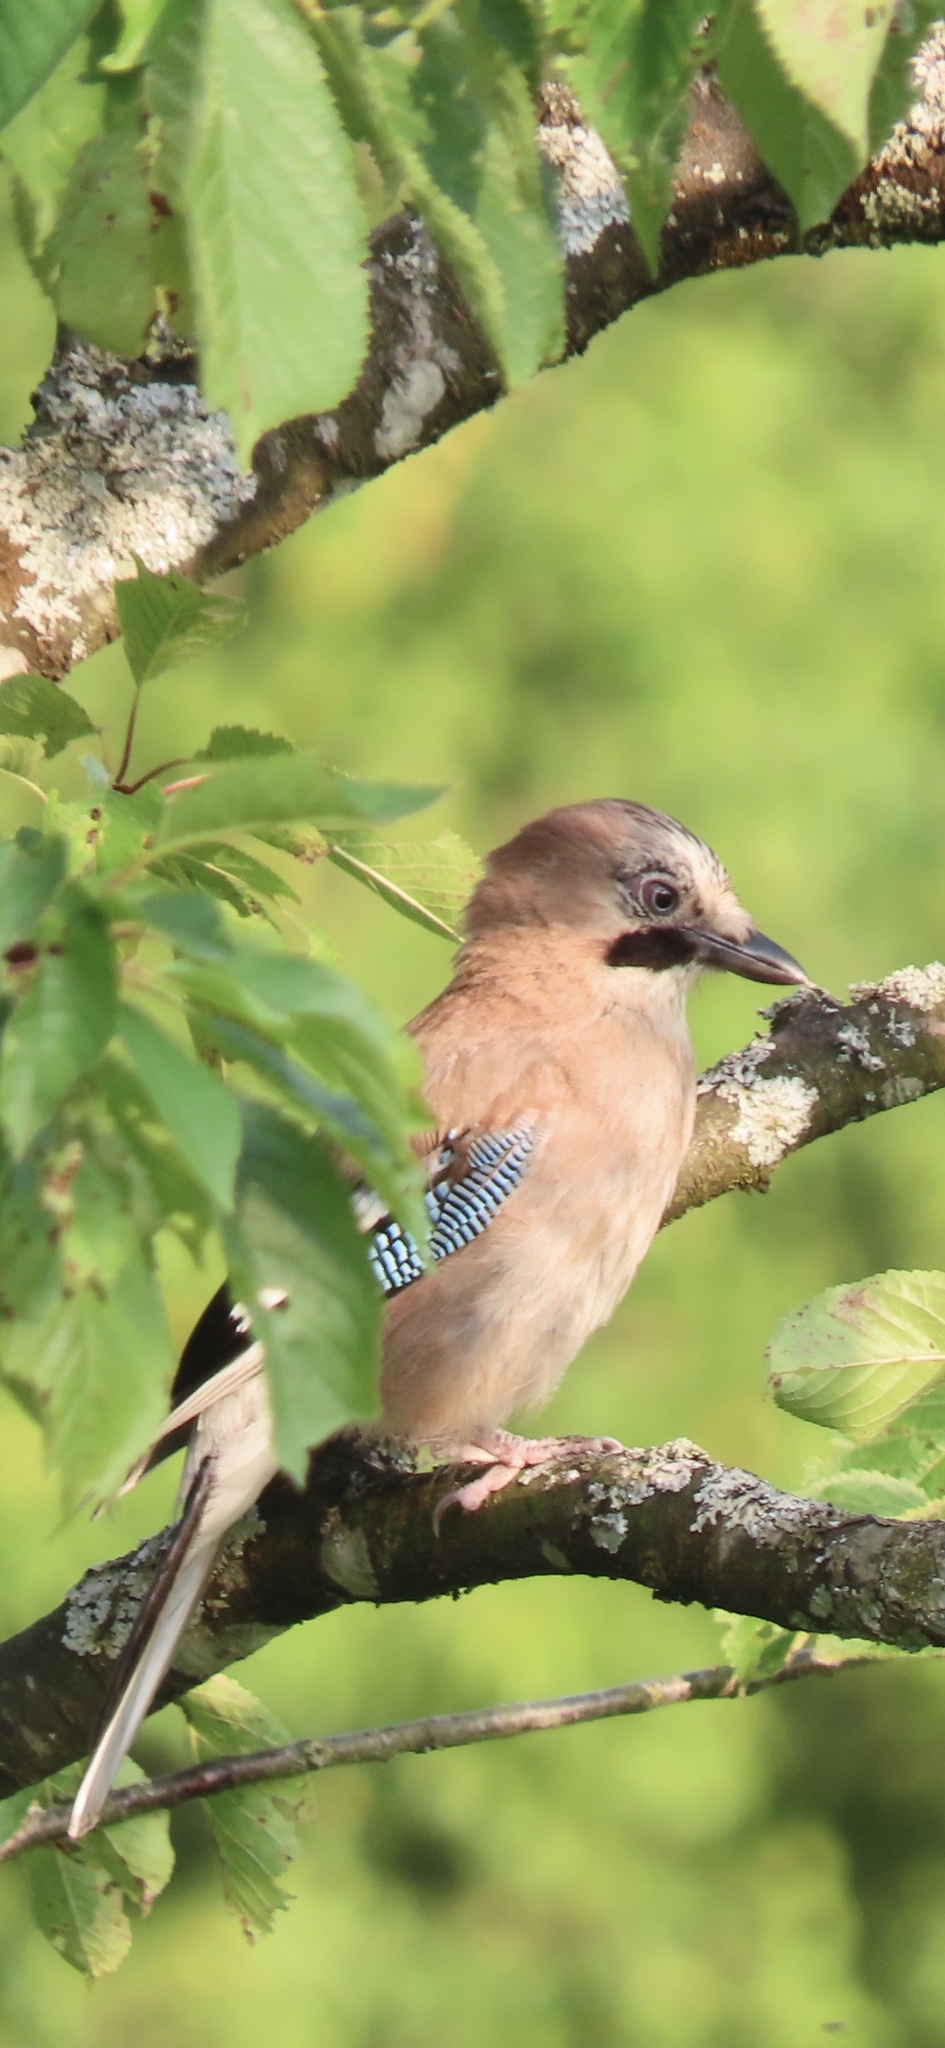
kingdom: Animalia
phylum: Chordata
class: Aves
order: Passeriformes
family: Corvidae
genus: Garrulus
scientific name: Garrulus glandarius
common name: Eurasian jay
